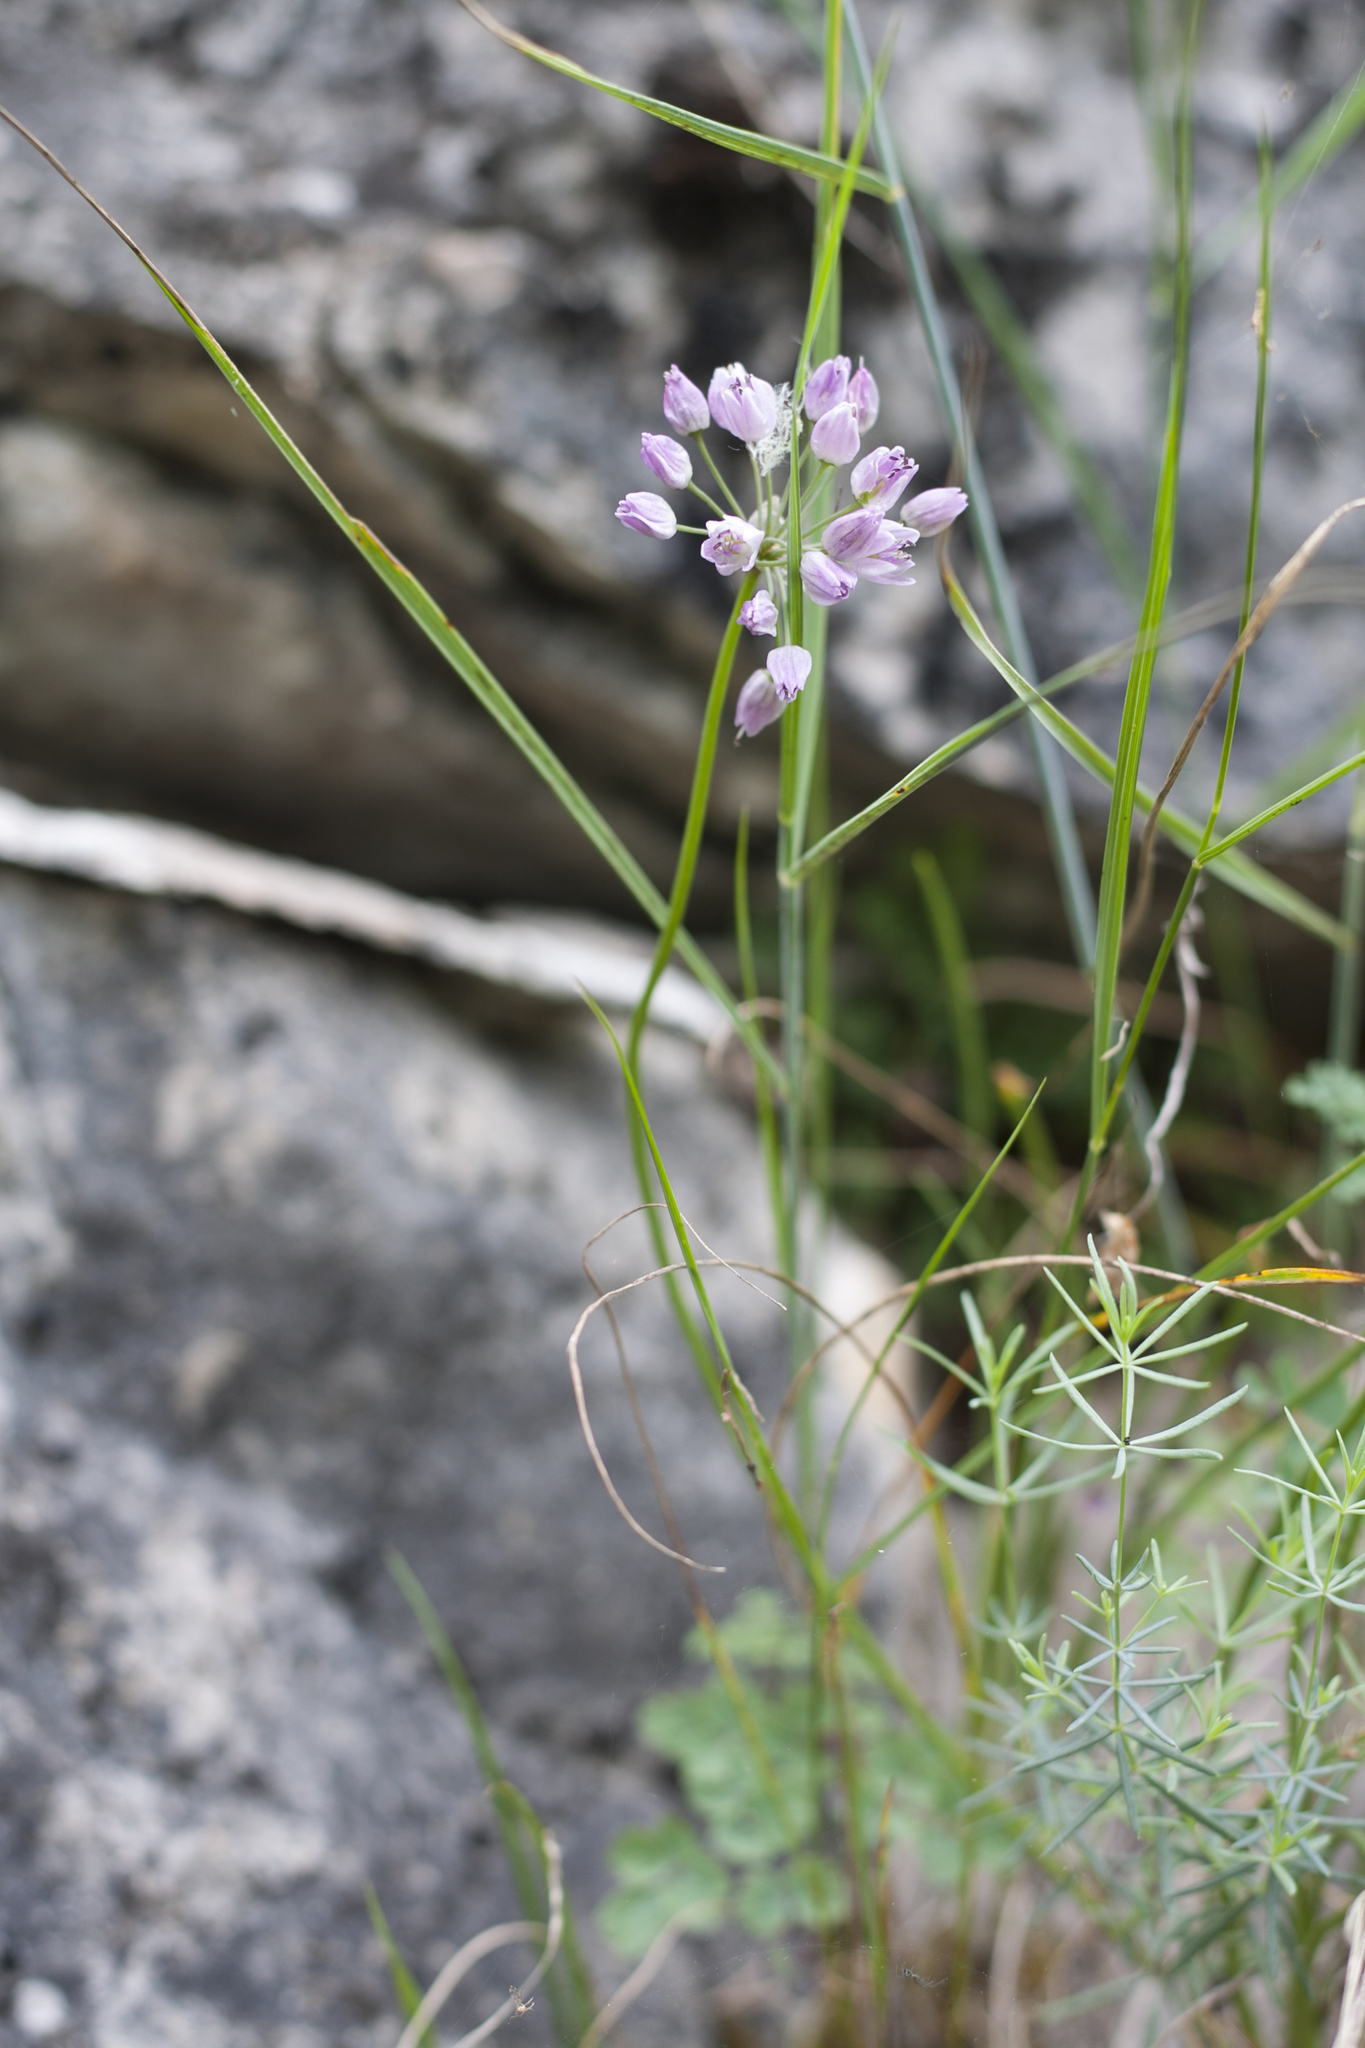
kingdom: Plantae
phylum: Tracheophyta
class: Liliopsida
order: Asparagales
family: Amaryllidaceae
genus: Allium
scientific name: Allium rubens
